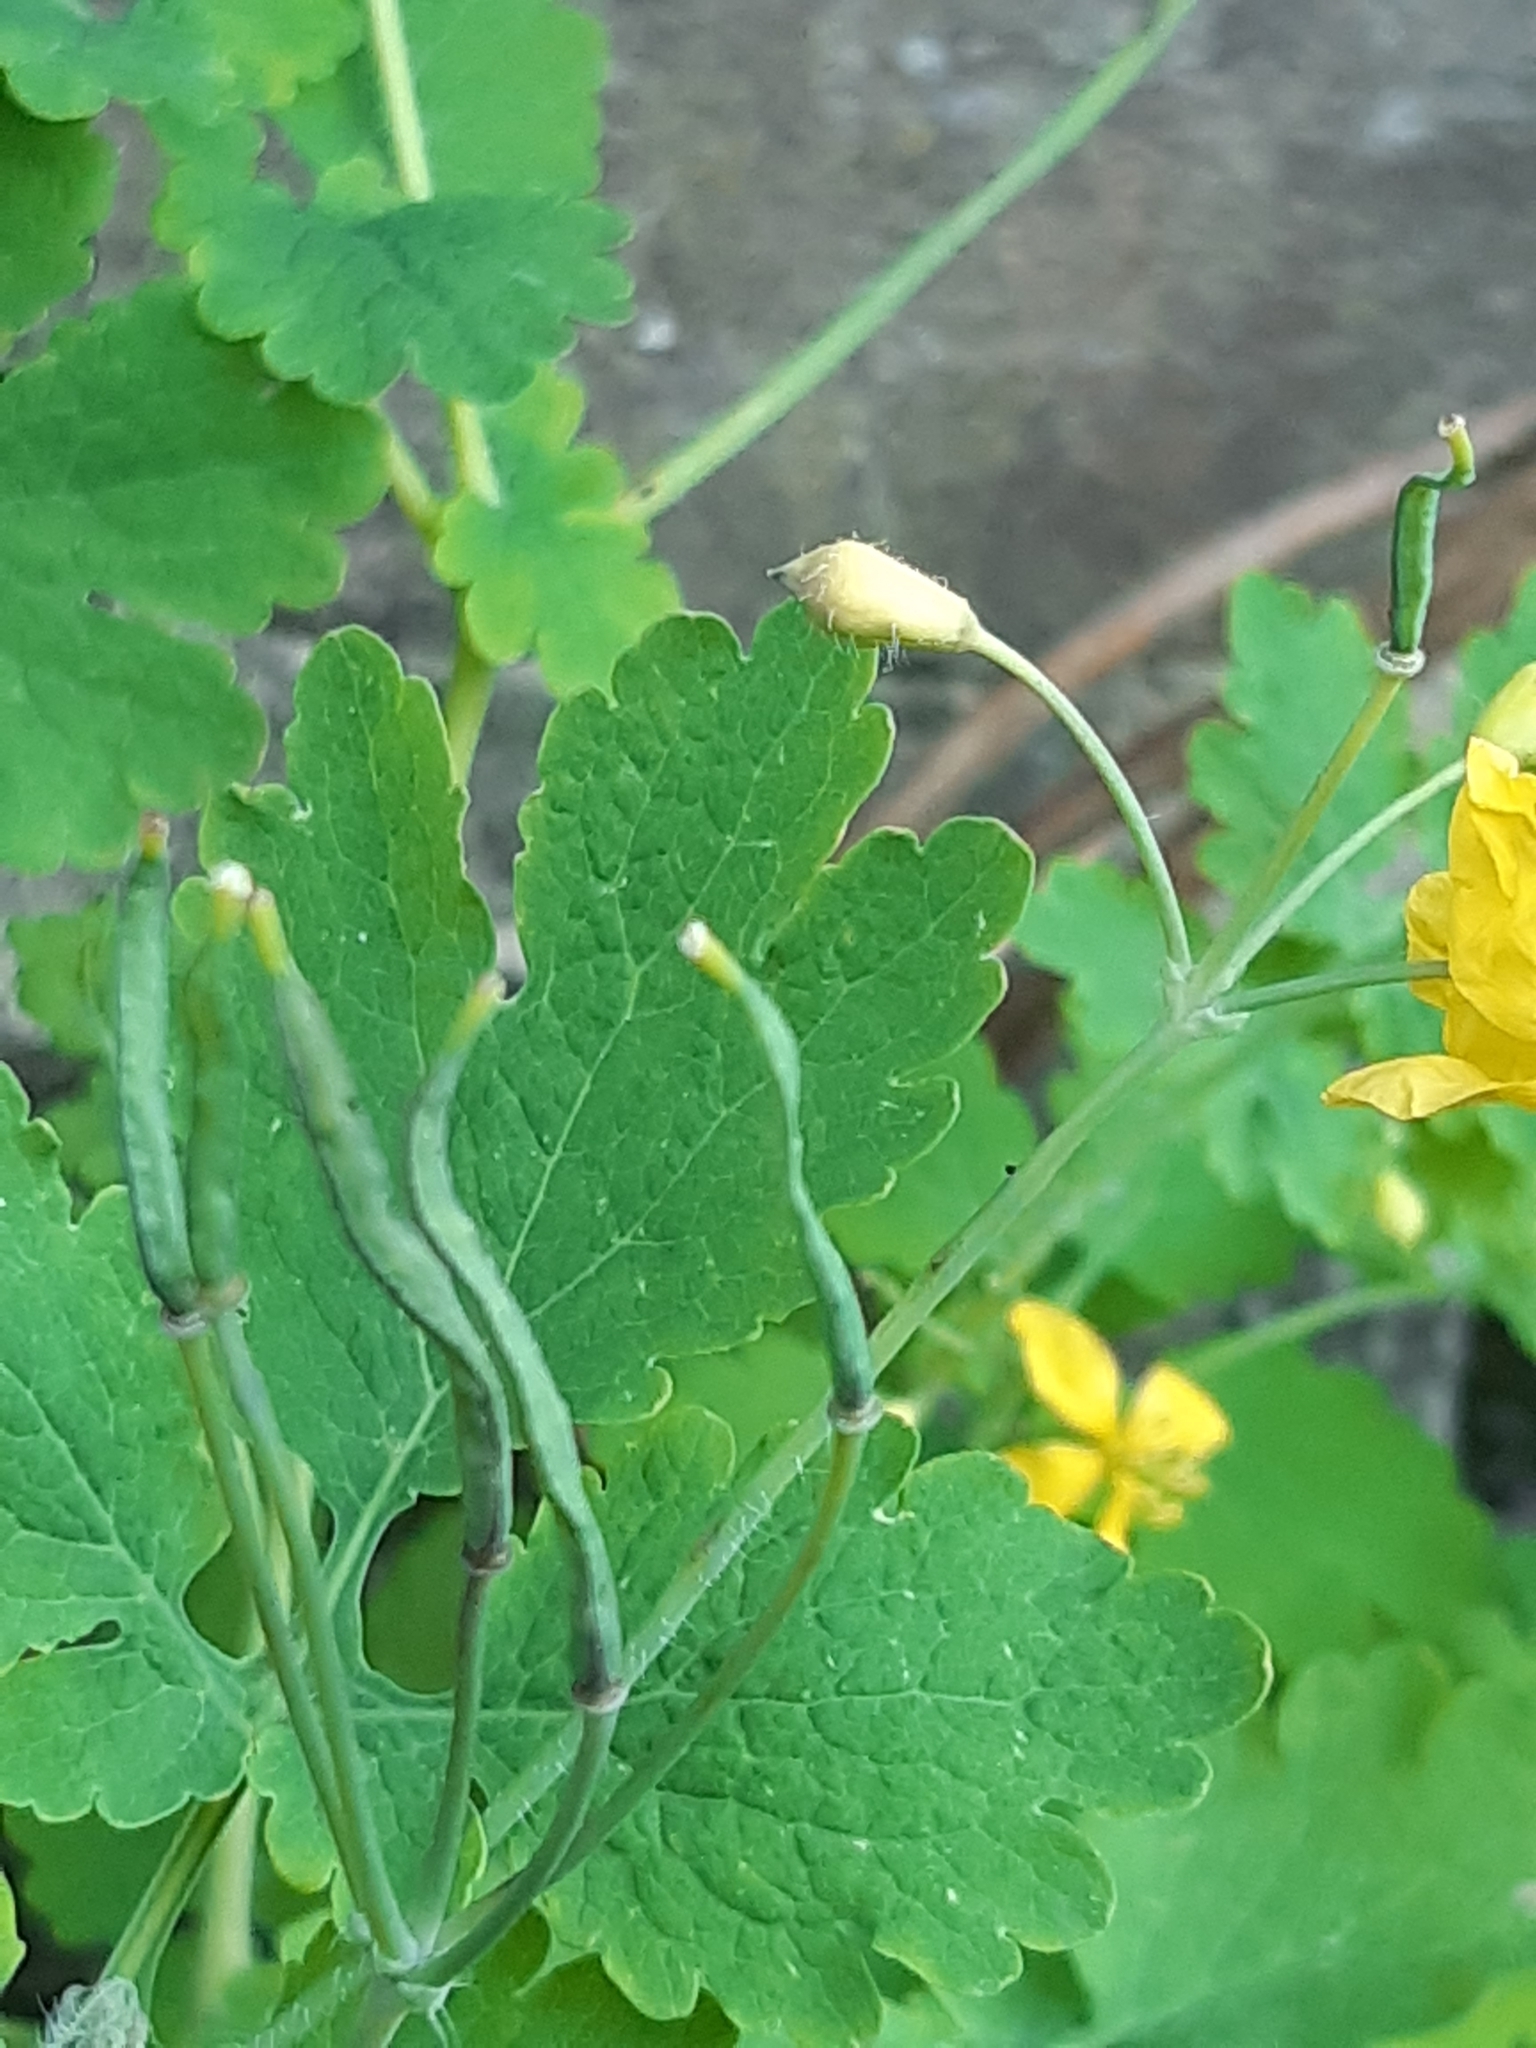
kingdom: Plantae
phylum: Tracheophyta
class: Magnoliopsida
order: Ranunculales
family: Papaveraceae
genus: Chelidonium
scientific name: Chelidonium majus
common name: Greater celandine
